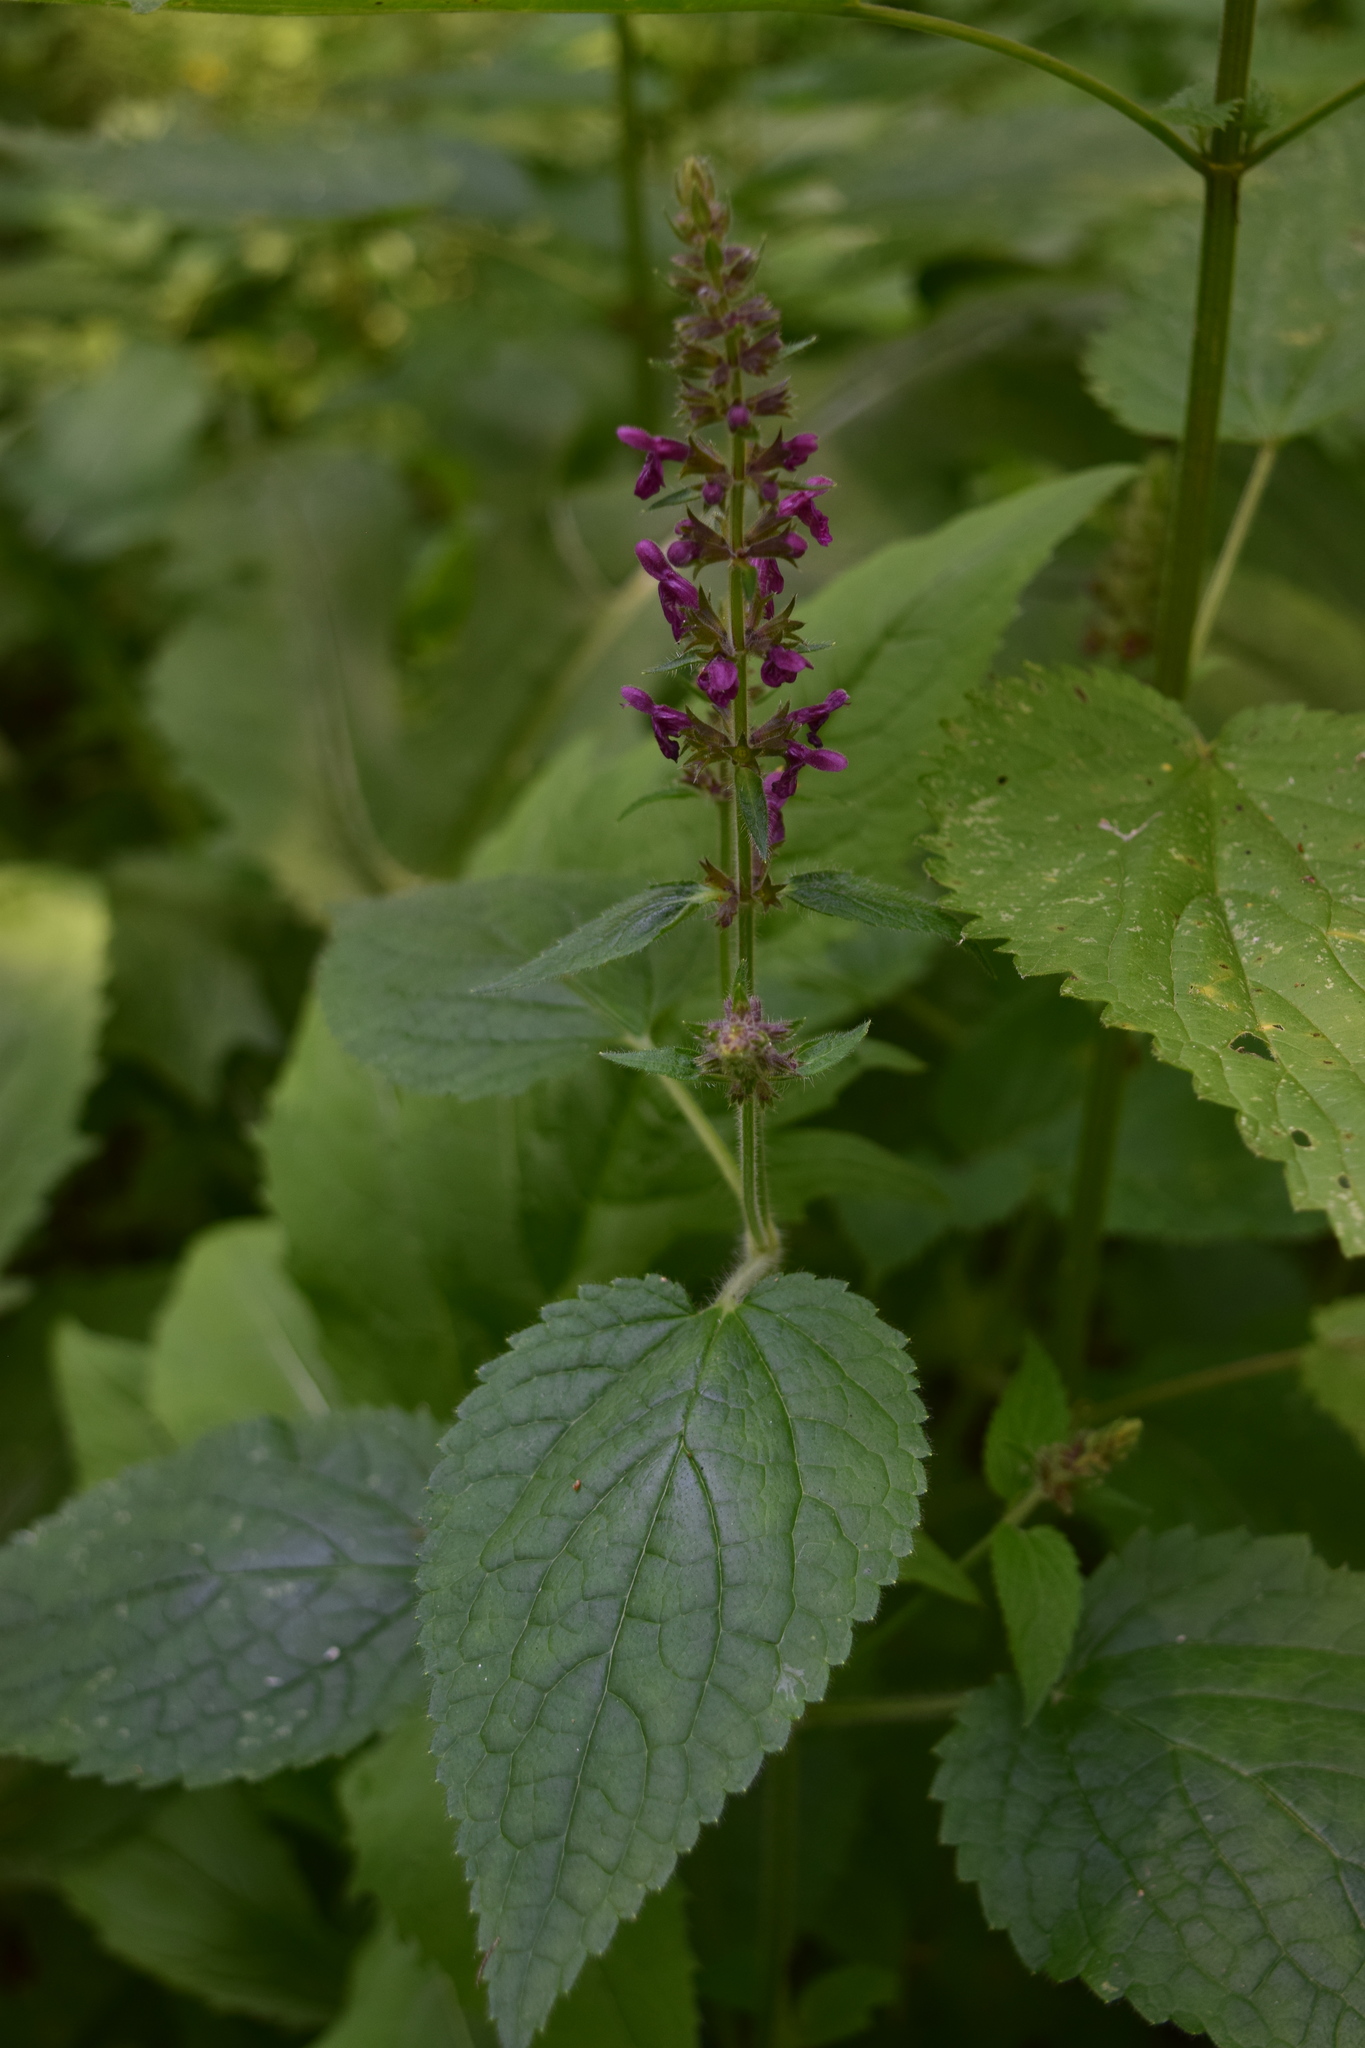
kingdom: Plantae
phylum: Tracheophyta
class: Magnoliopsida
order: Lamiales
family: Lamiaceae
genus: Stachys
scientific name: Stachys sylvatica
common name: Hedge woundwort
